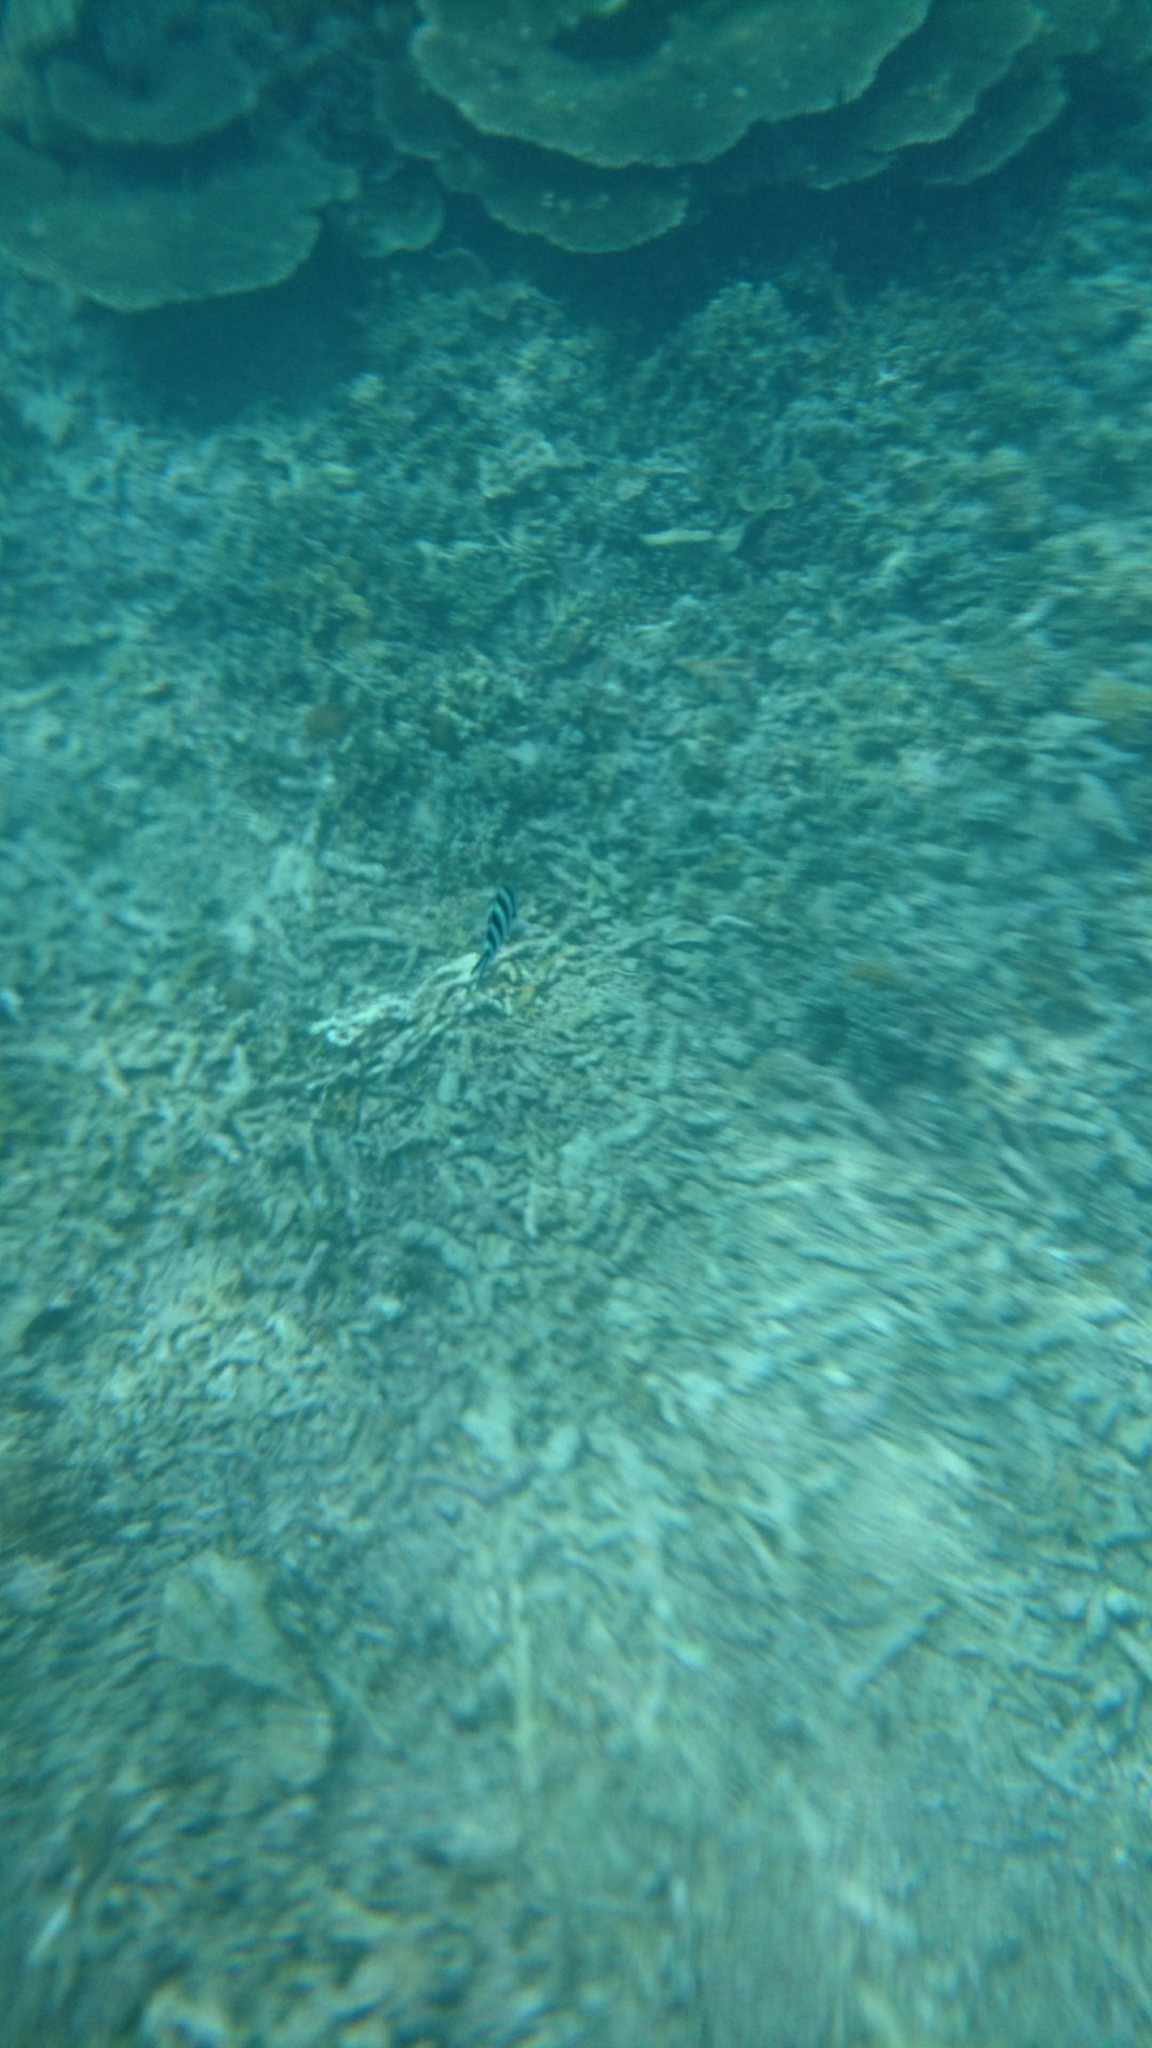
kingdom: Animalia
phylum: Chordata
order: Perciformes
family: Pomacentridae
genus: Abudefduf
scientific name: Abudefduf sexfasciatus
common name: Scissortail sergeant
